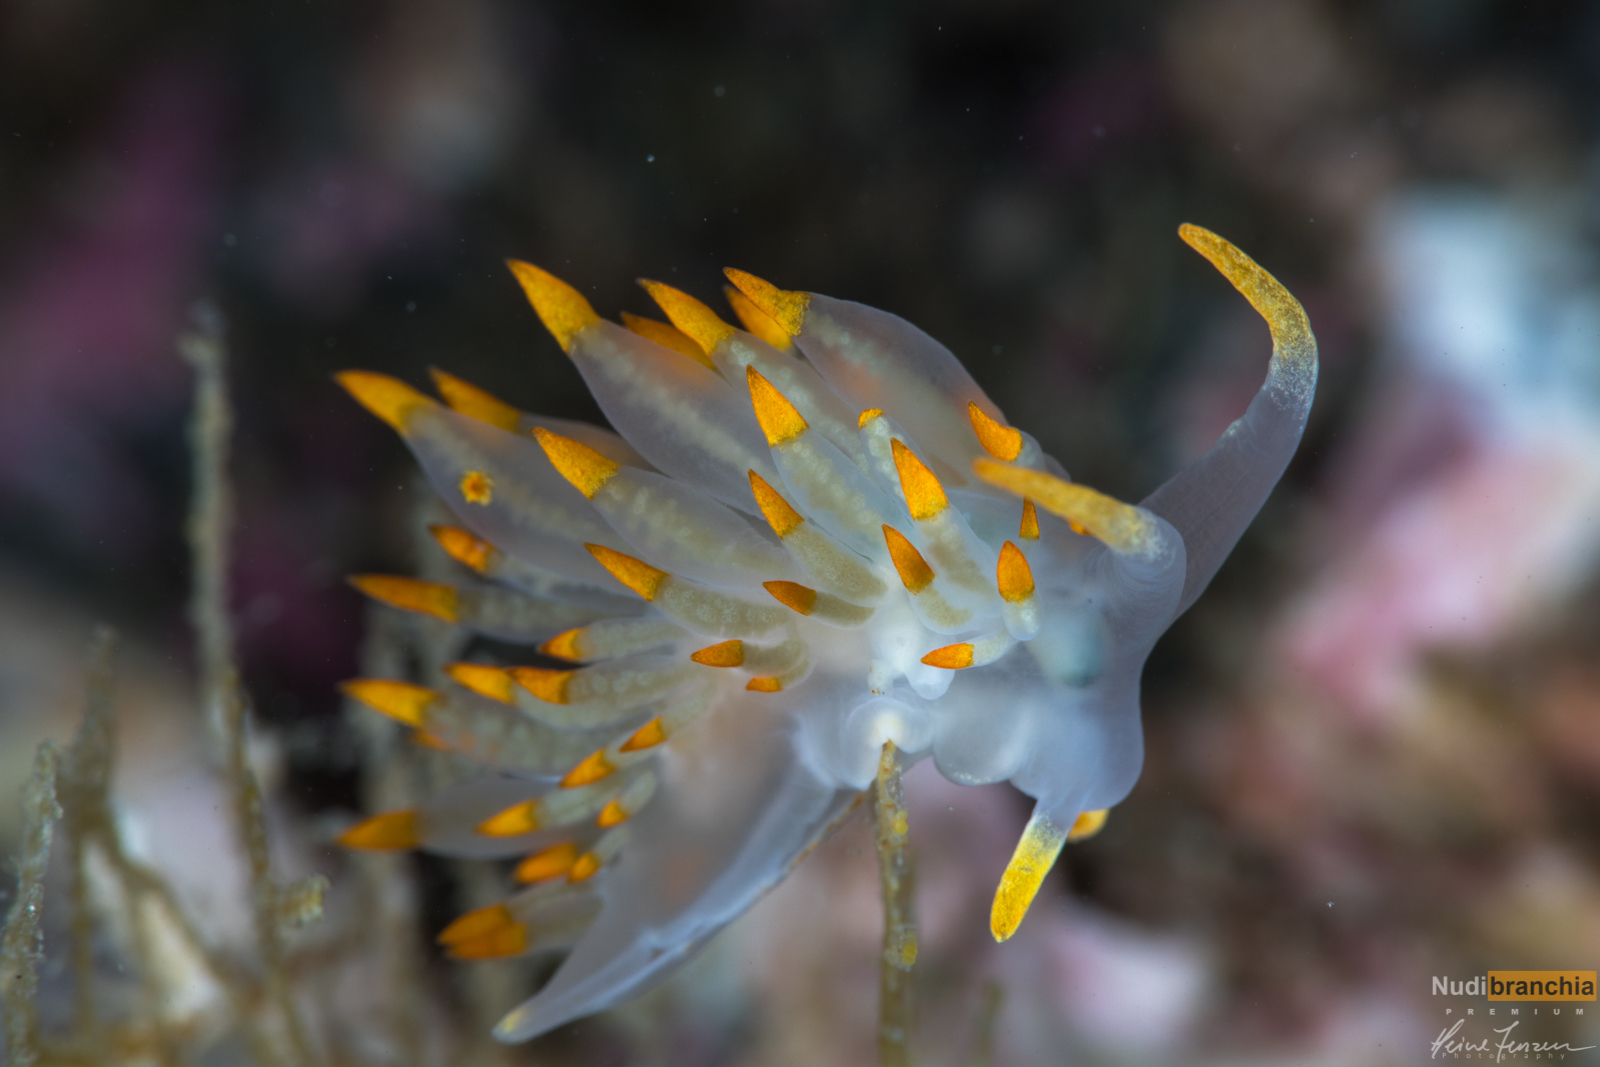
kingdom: Animalia
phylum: Mollusca
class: Gastropoda
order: Nudibranchia
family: Eubranchidae
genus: Amphorina
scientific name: Amphorina farrani
